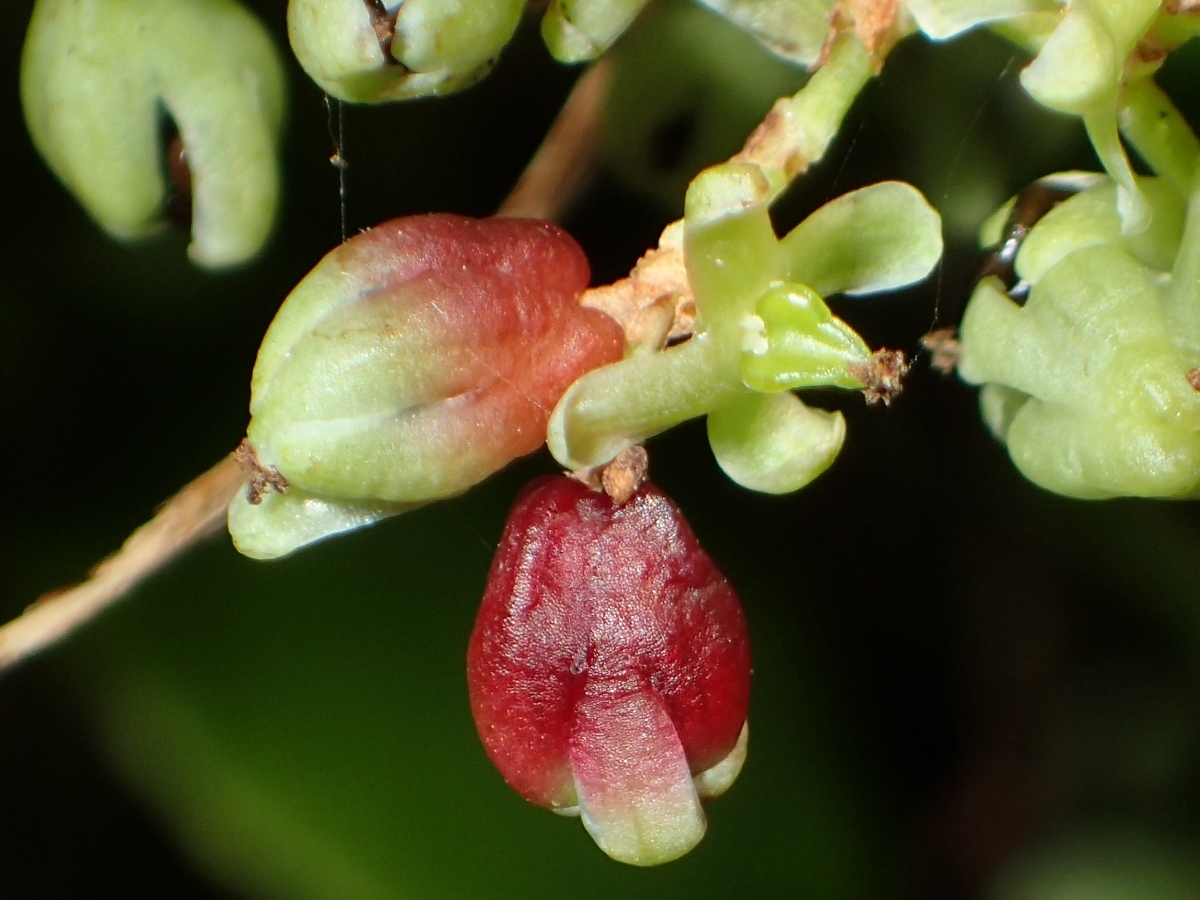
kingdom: Plantae
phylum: Tracheophyta
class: Magnoliopsida
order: Caryophyllales
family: Polygonaceae
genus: Muehlenbeckia
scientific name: Muehlenbeckia australis
